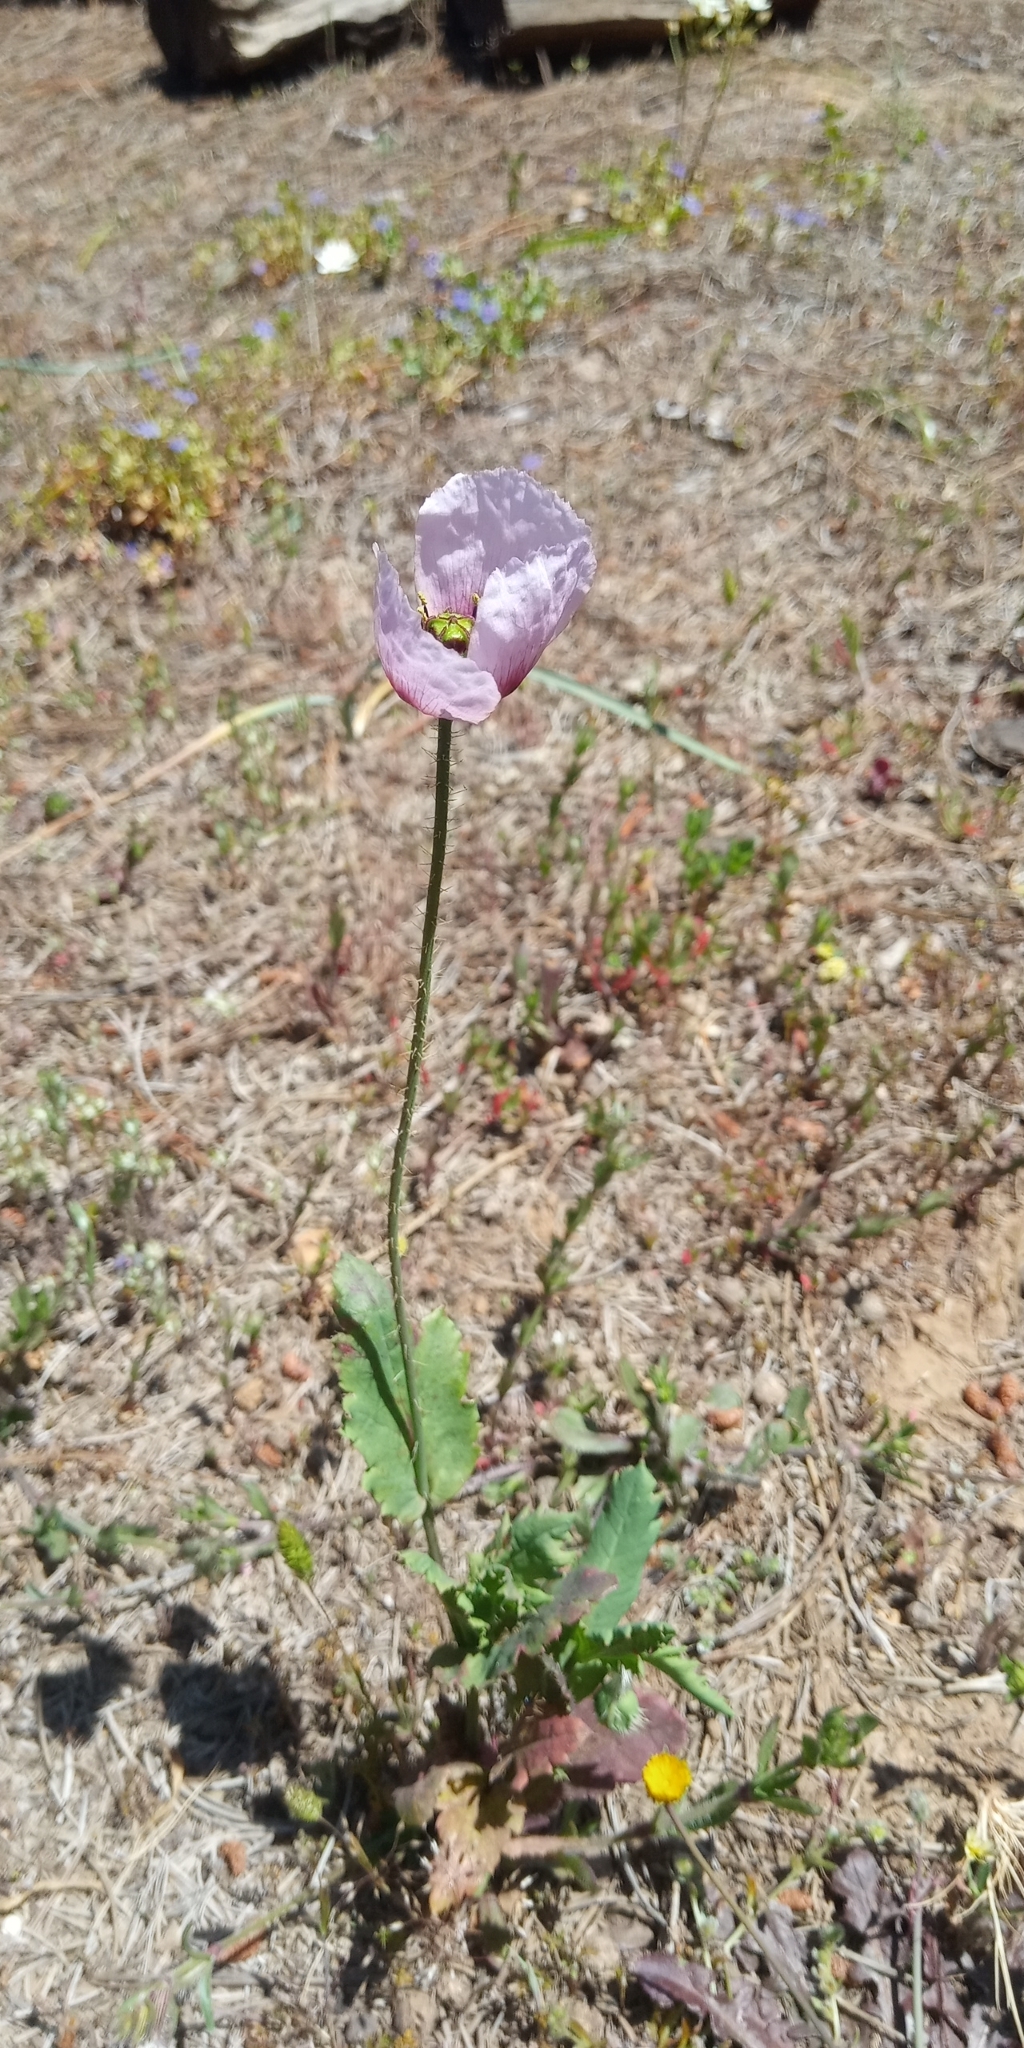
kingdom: Plantae
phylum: Tracheophyta
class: Magnoliopsida
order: Ranunculales
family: Papaveraceae
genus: Papaver
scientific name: Papaver somniferum
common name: Opium poppy
